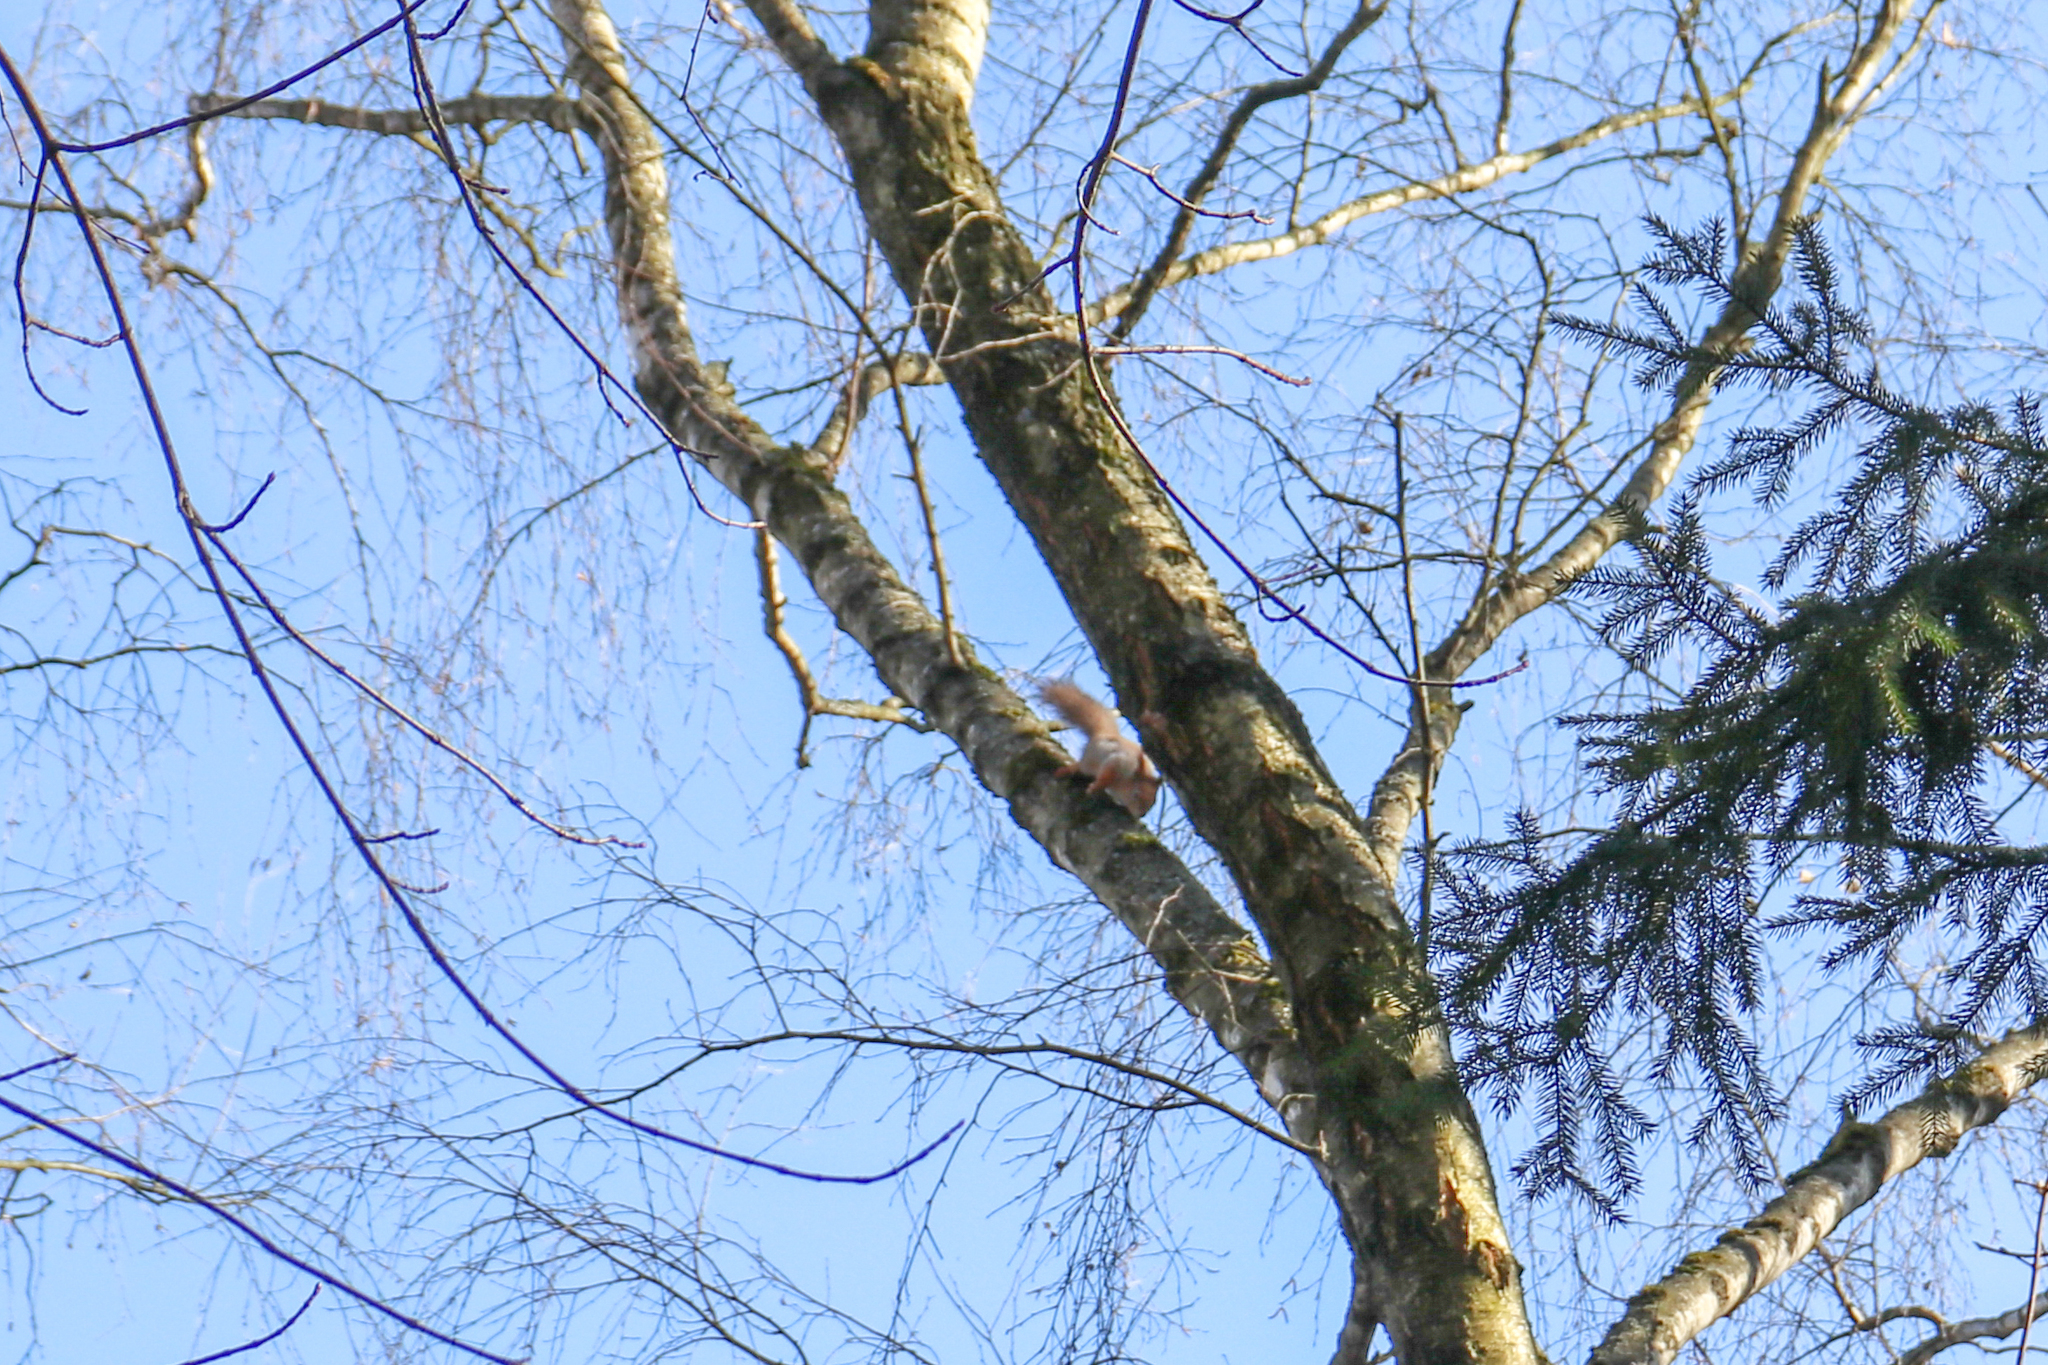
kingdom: Animalia
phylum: Chordata
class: Mammalia
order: Rodentia
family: Sciuridae
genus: Sciurus
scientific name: Sciurus vulgaris
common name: Eurasian red squirrel
